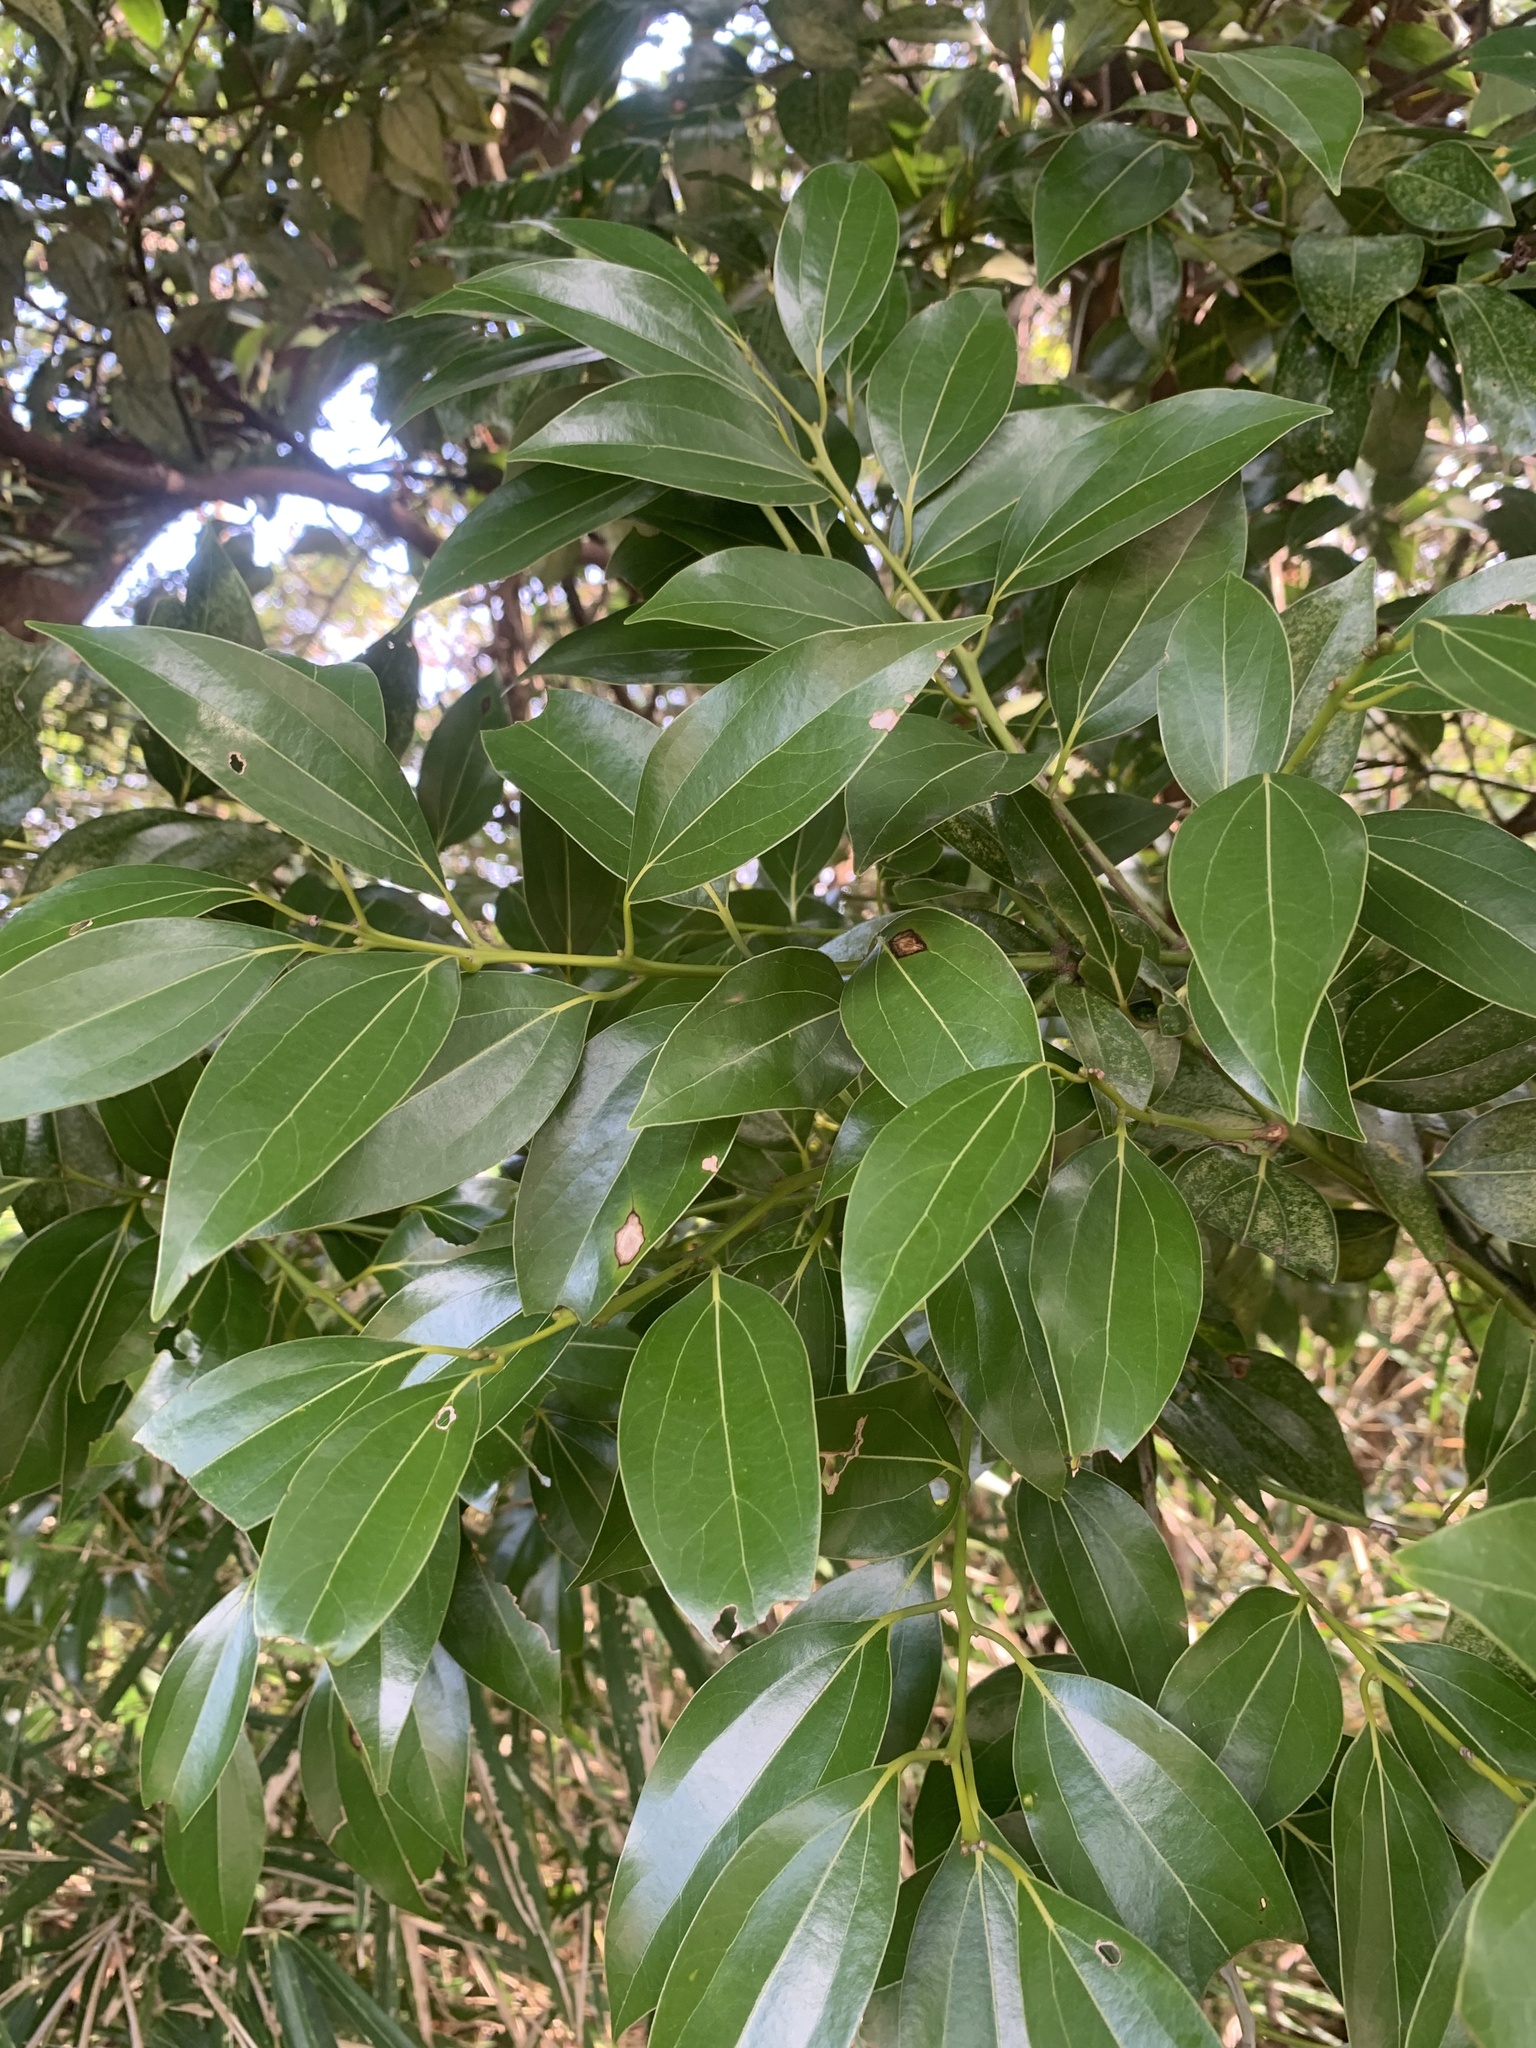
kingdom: Plantae
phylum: Tracheophyta
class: Magnoliopsida
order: Laurales
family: Lauraceae
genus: Cinnamomum
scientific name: Cinnamomum chekiangense
